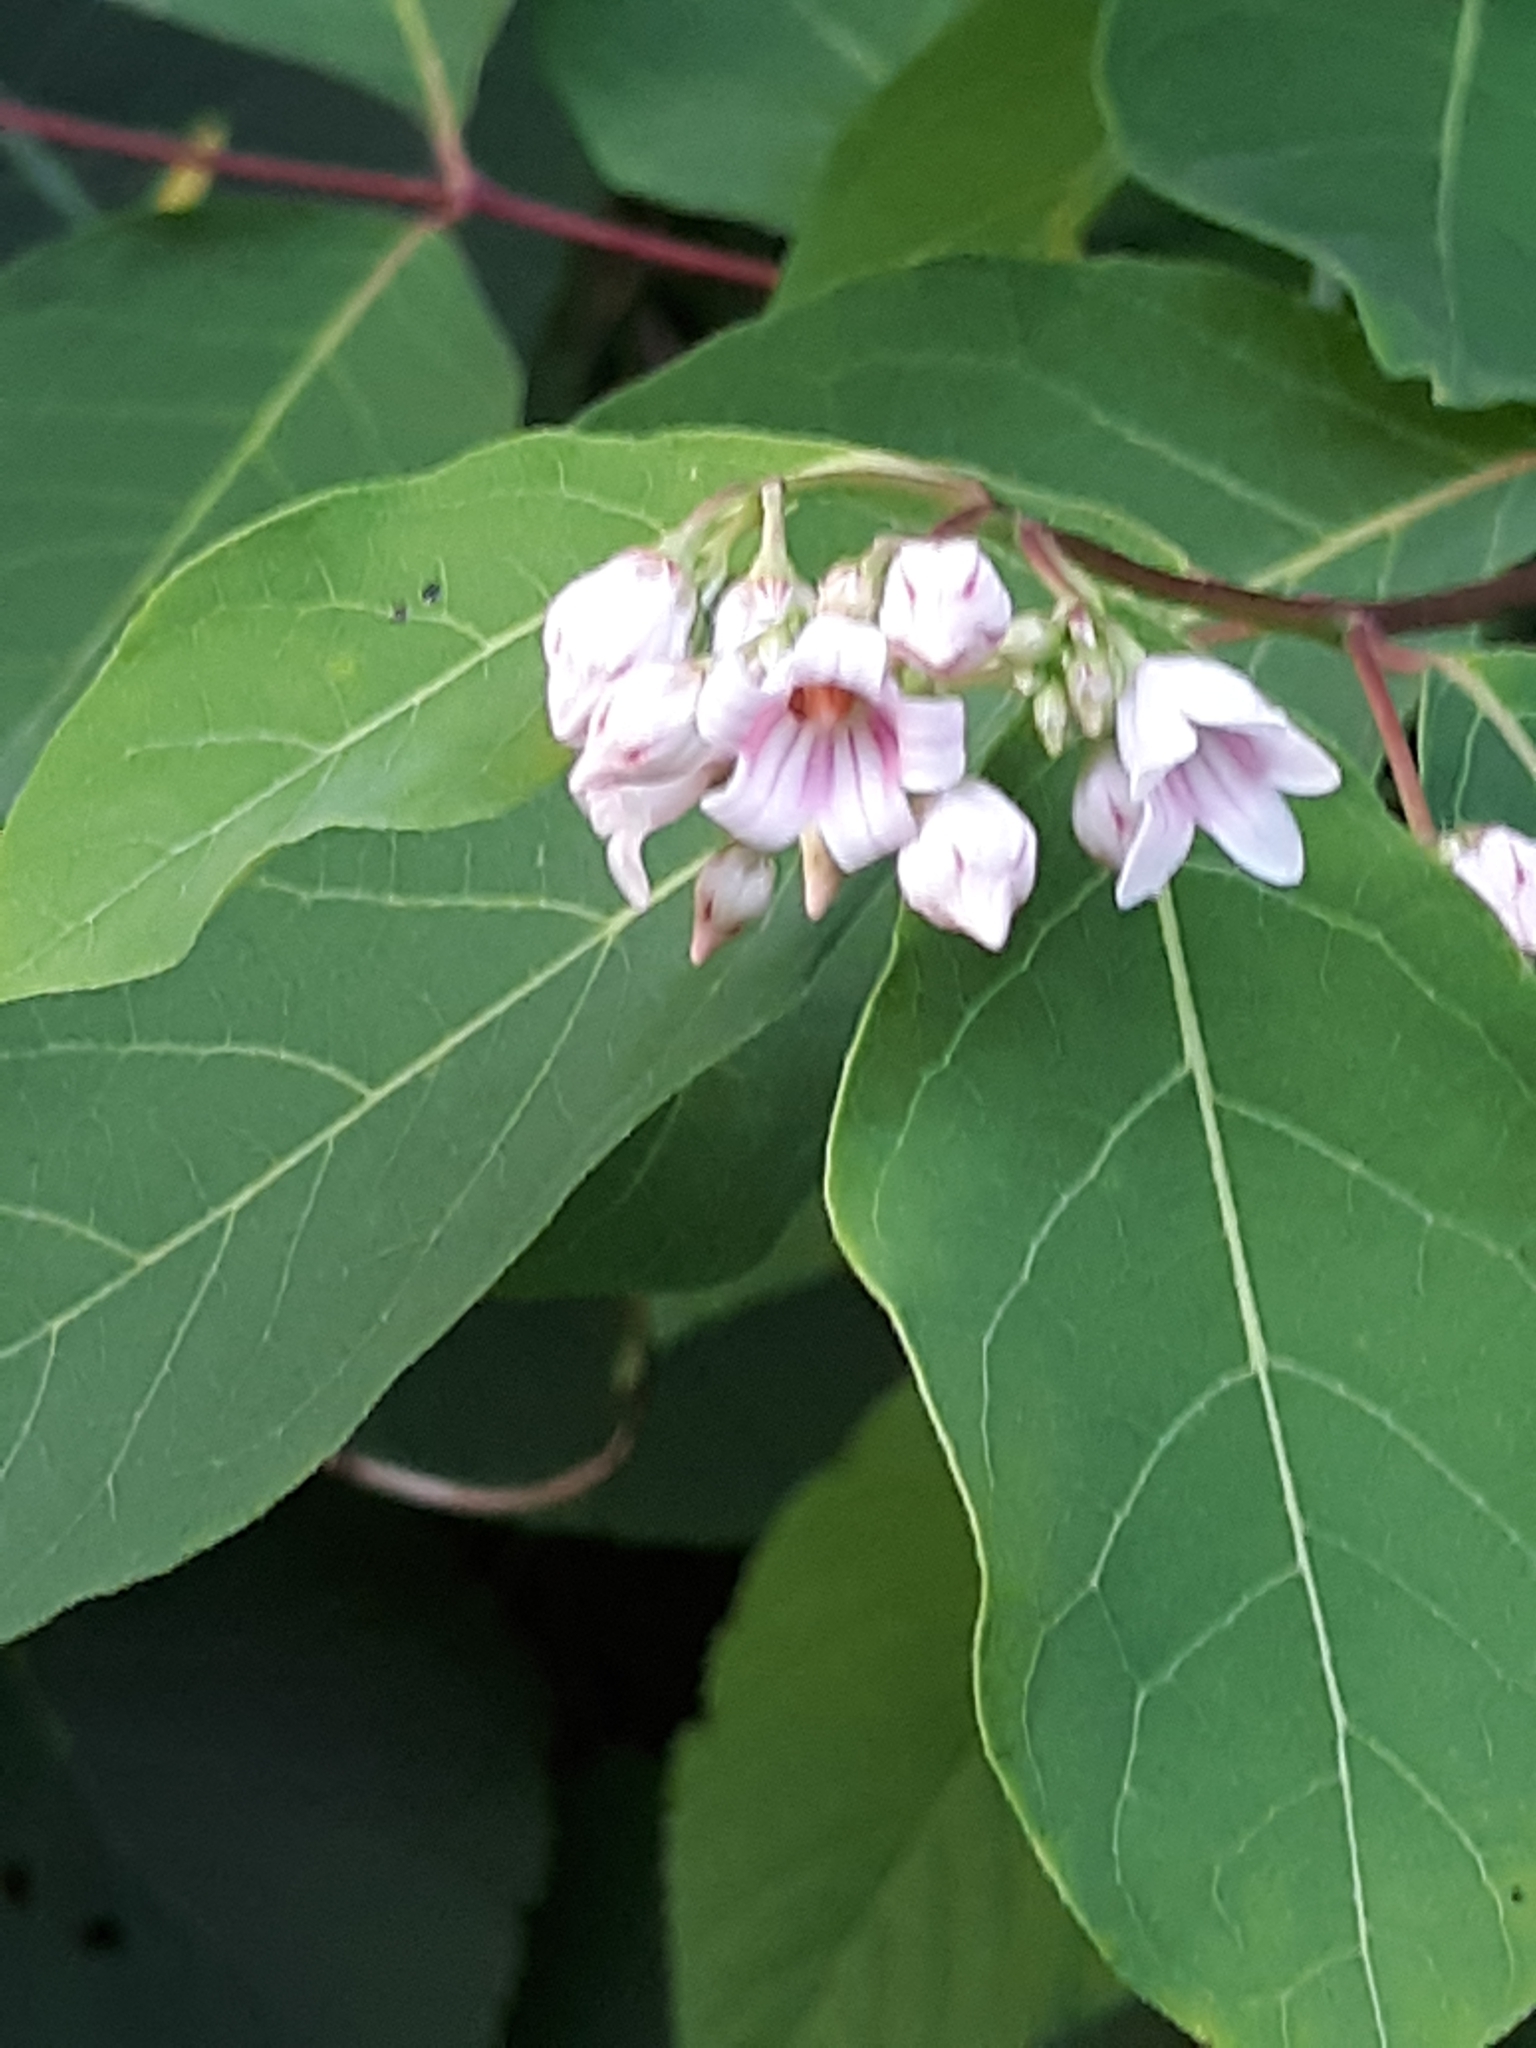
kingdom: Plantae
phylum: Tracheophyta
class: Magnoliopsida
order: Gentianales
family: Apocynaceae
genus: Apocynum
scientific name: Apocynum androsaemifolium
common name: Spreading dogbane
